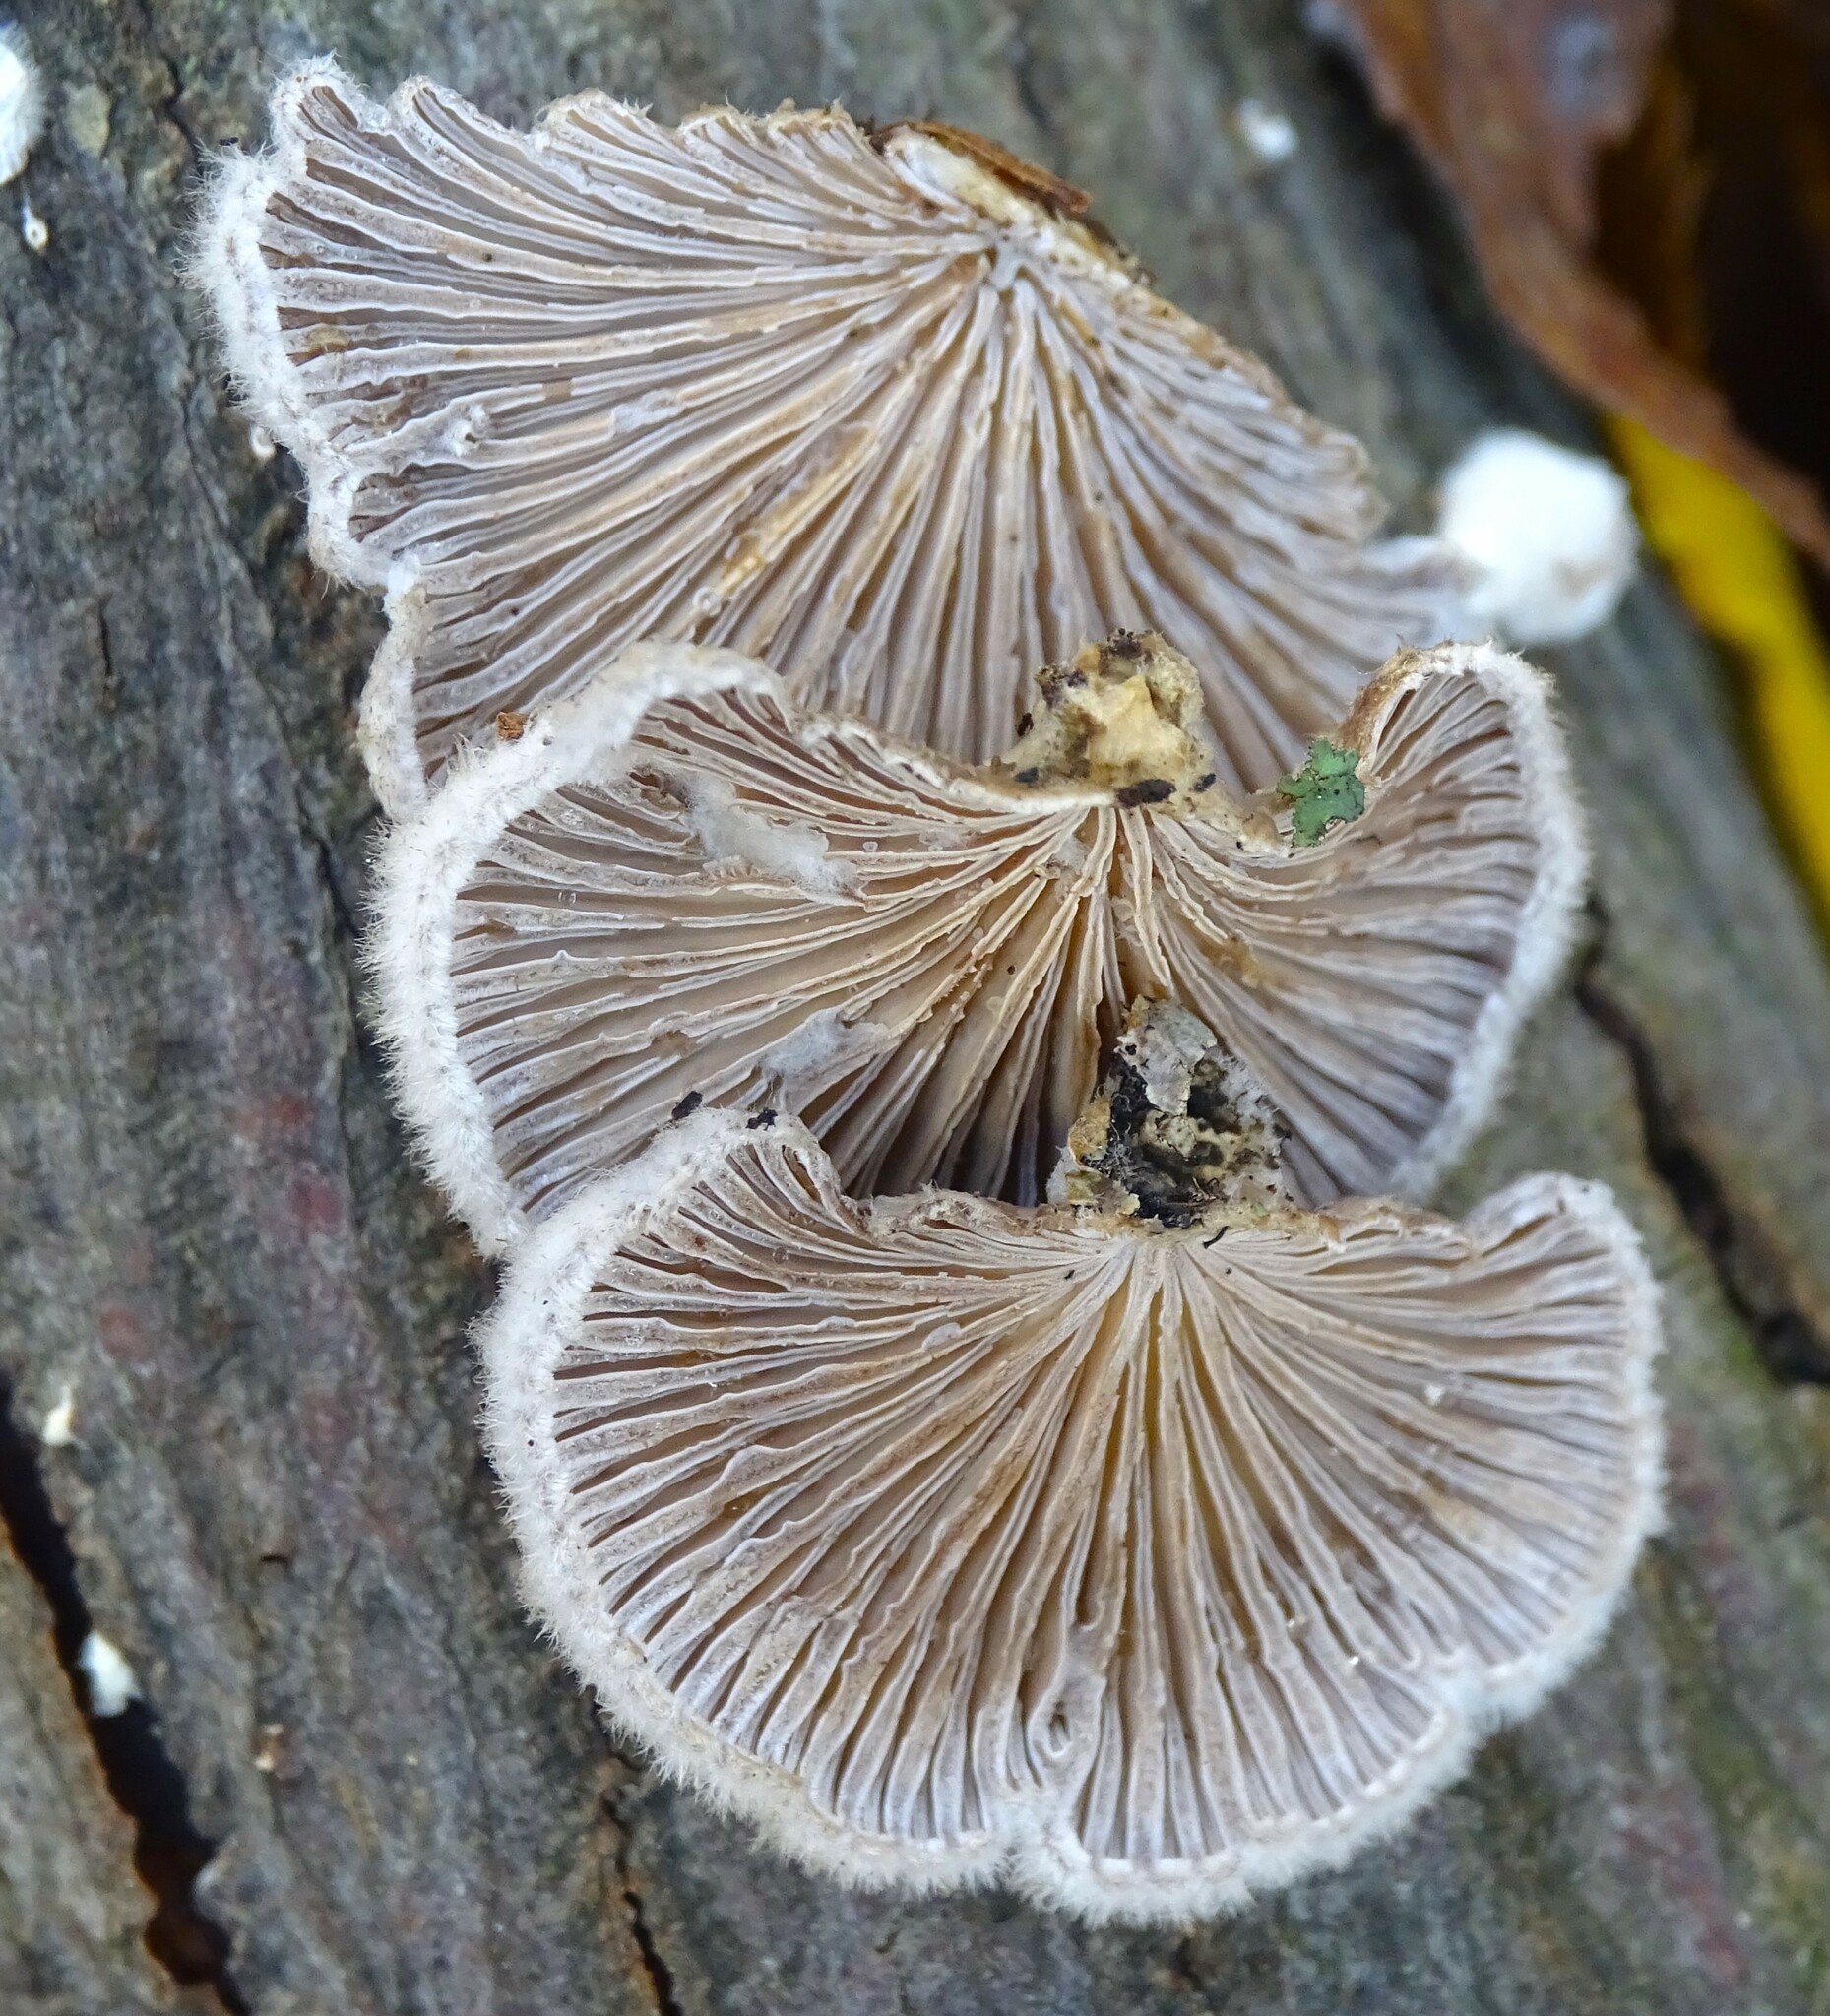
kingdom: Fungi
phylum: Basidiomycota
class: Agaricomycetes
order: Agaricales
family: Schizophyllaceae
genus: Schizophyllum
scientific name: Schizophyllum commune
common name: Common porecrust
